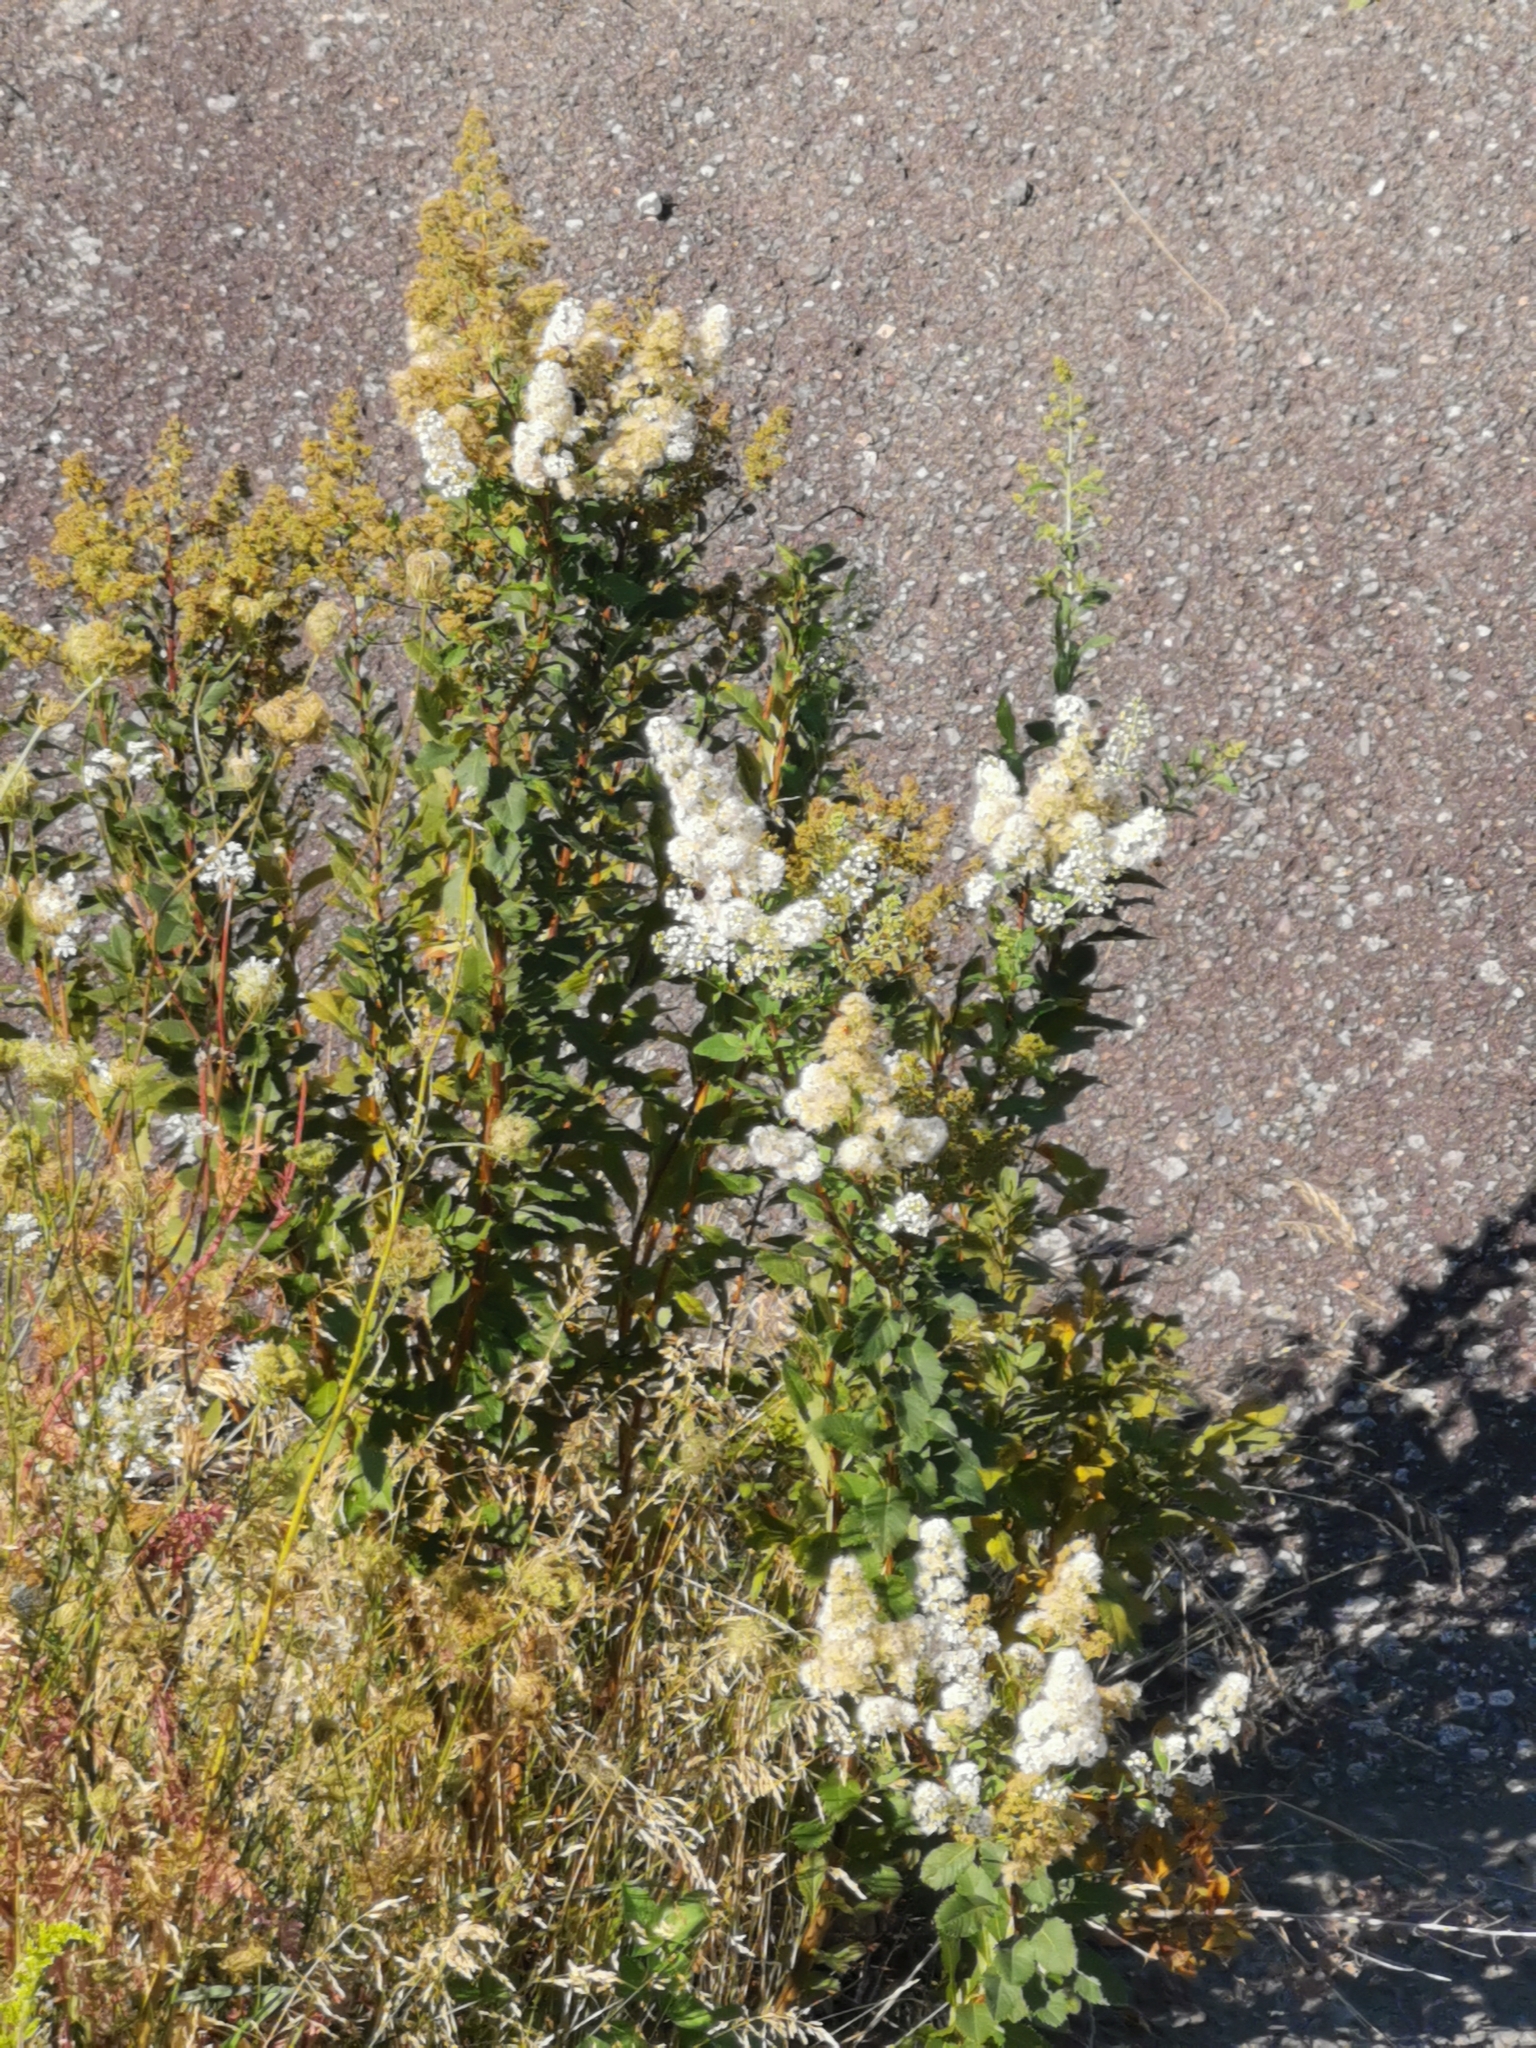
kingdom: Plantae
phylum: Tracheophyta
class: Magnoliopsida
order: Rosales
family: Rosaceae
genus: Spiraea
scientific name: Spiraea alba
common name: Pale bridewort
